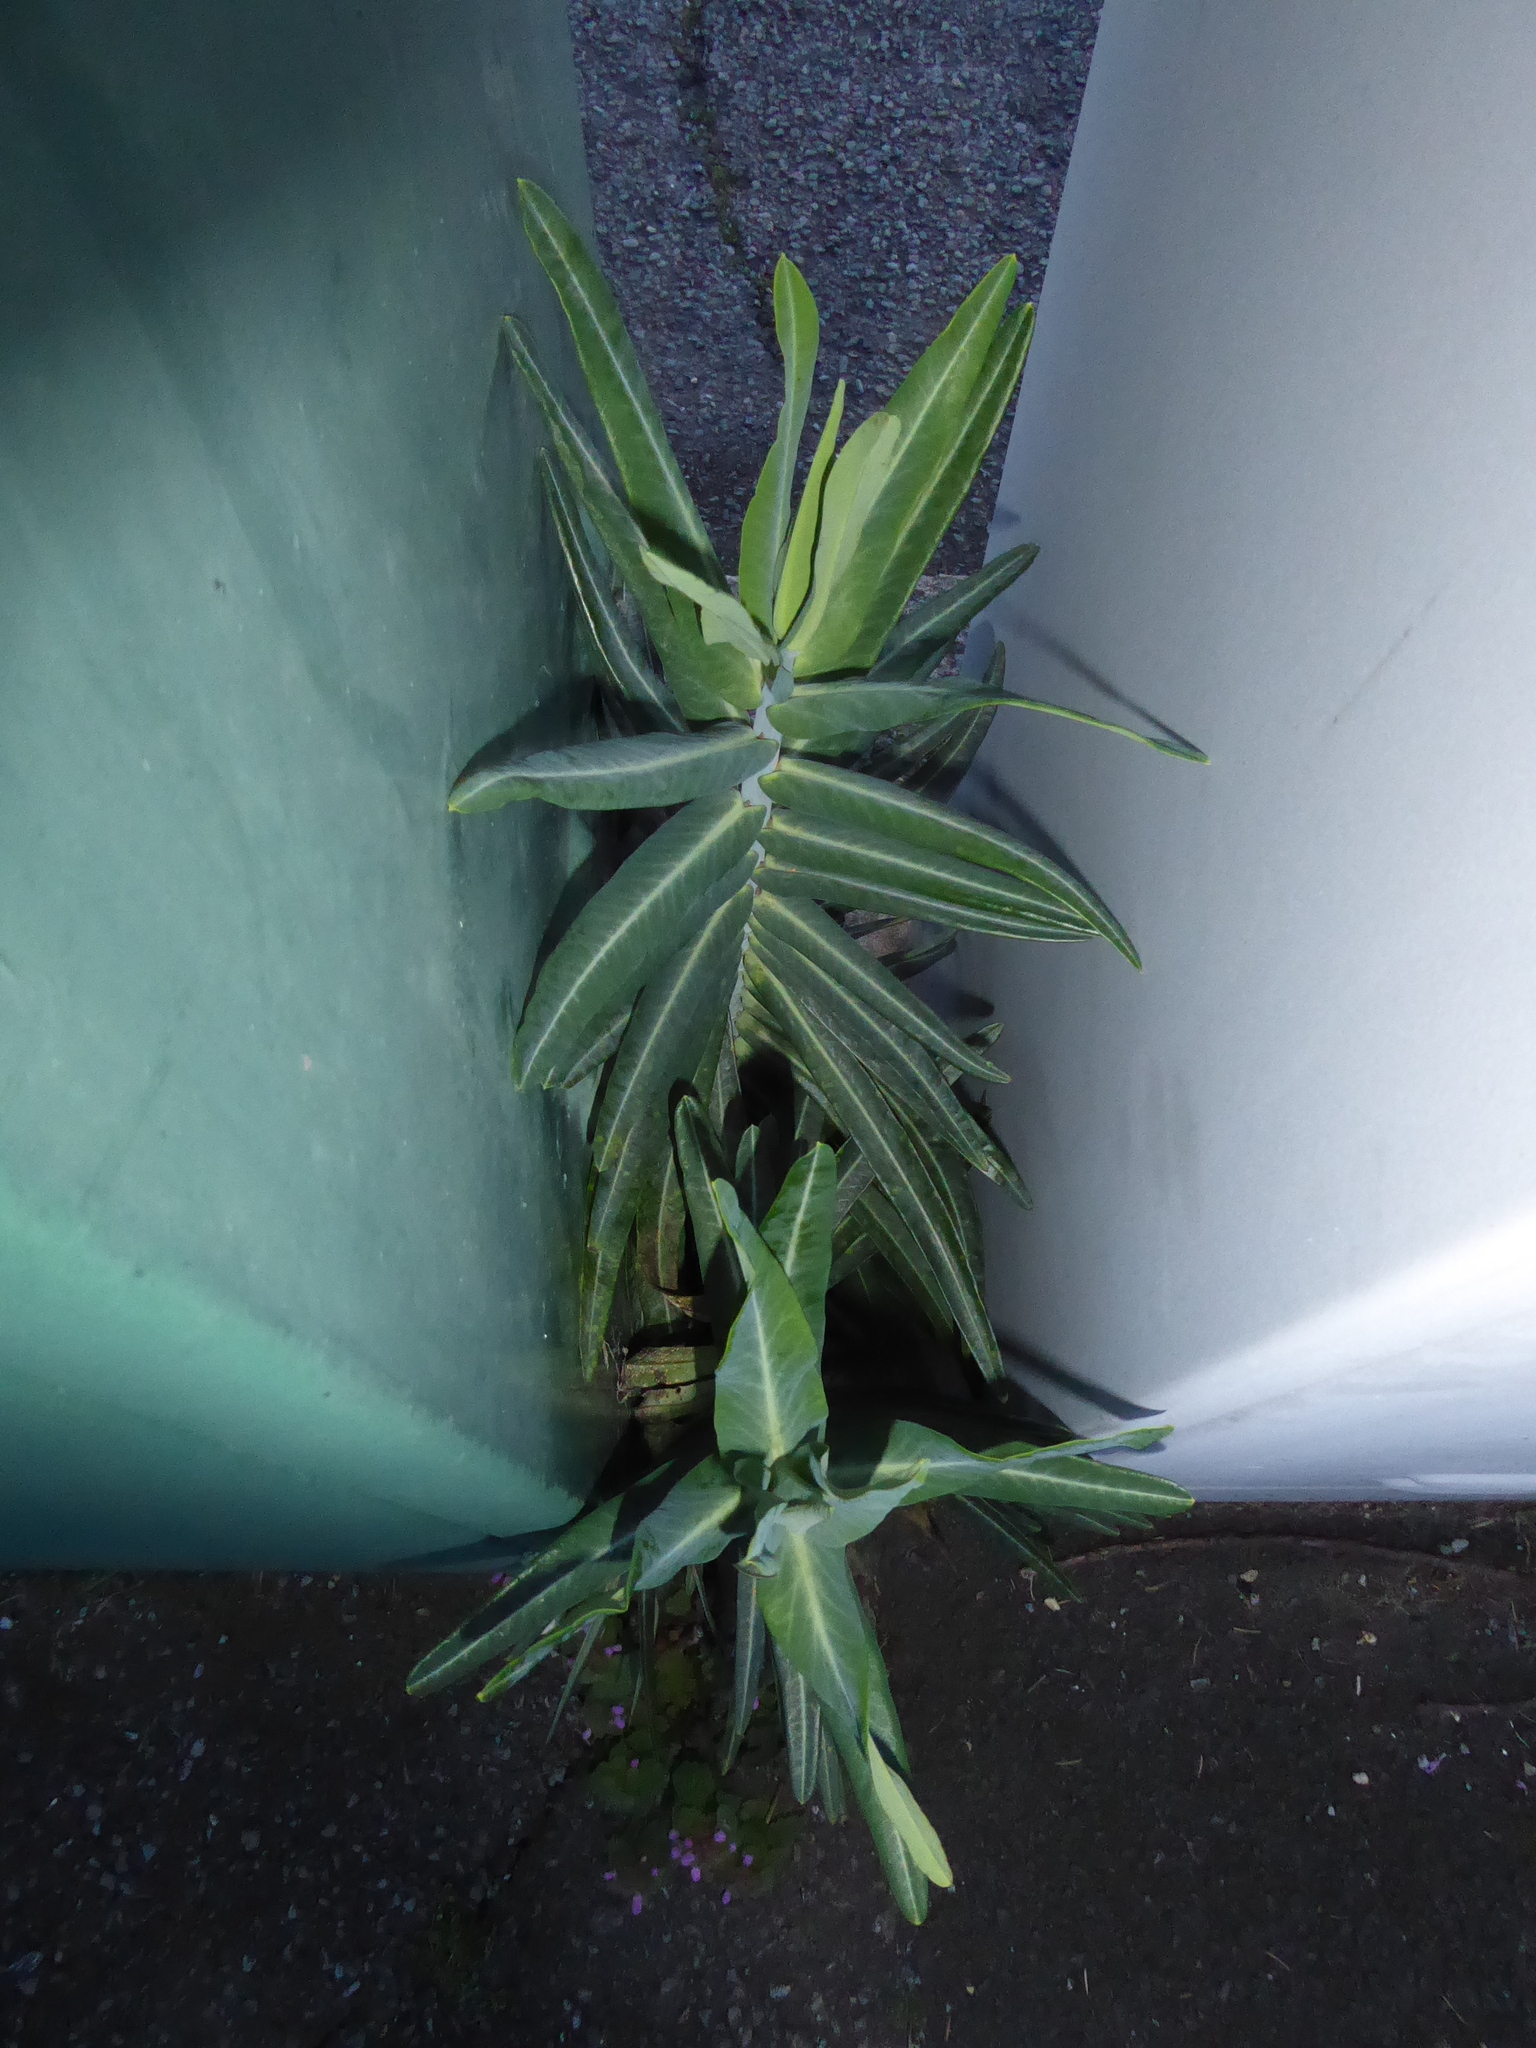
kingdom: Plantae
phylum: Tracheophyta
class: Magnoliopsida
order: Malpighiales
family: Euphorbiaceae
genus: Euphorbia
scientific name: Euphorbia lathyris
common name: Caper spurge
